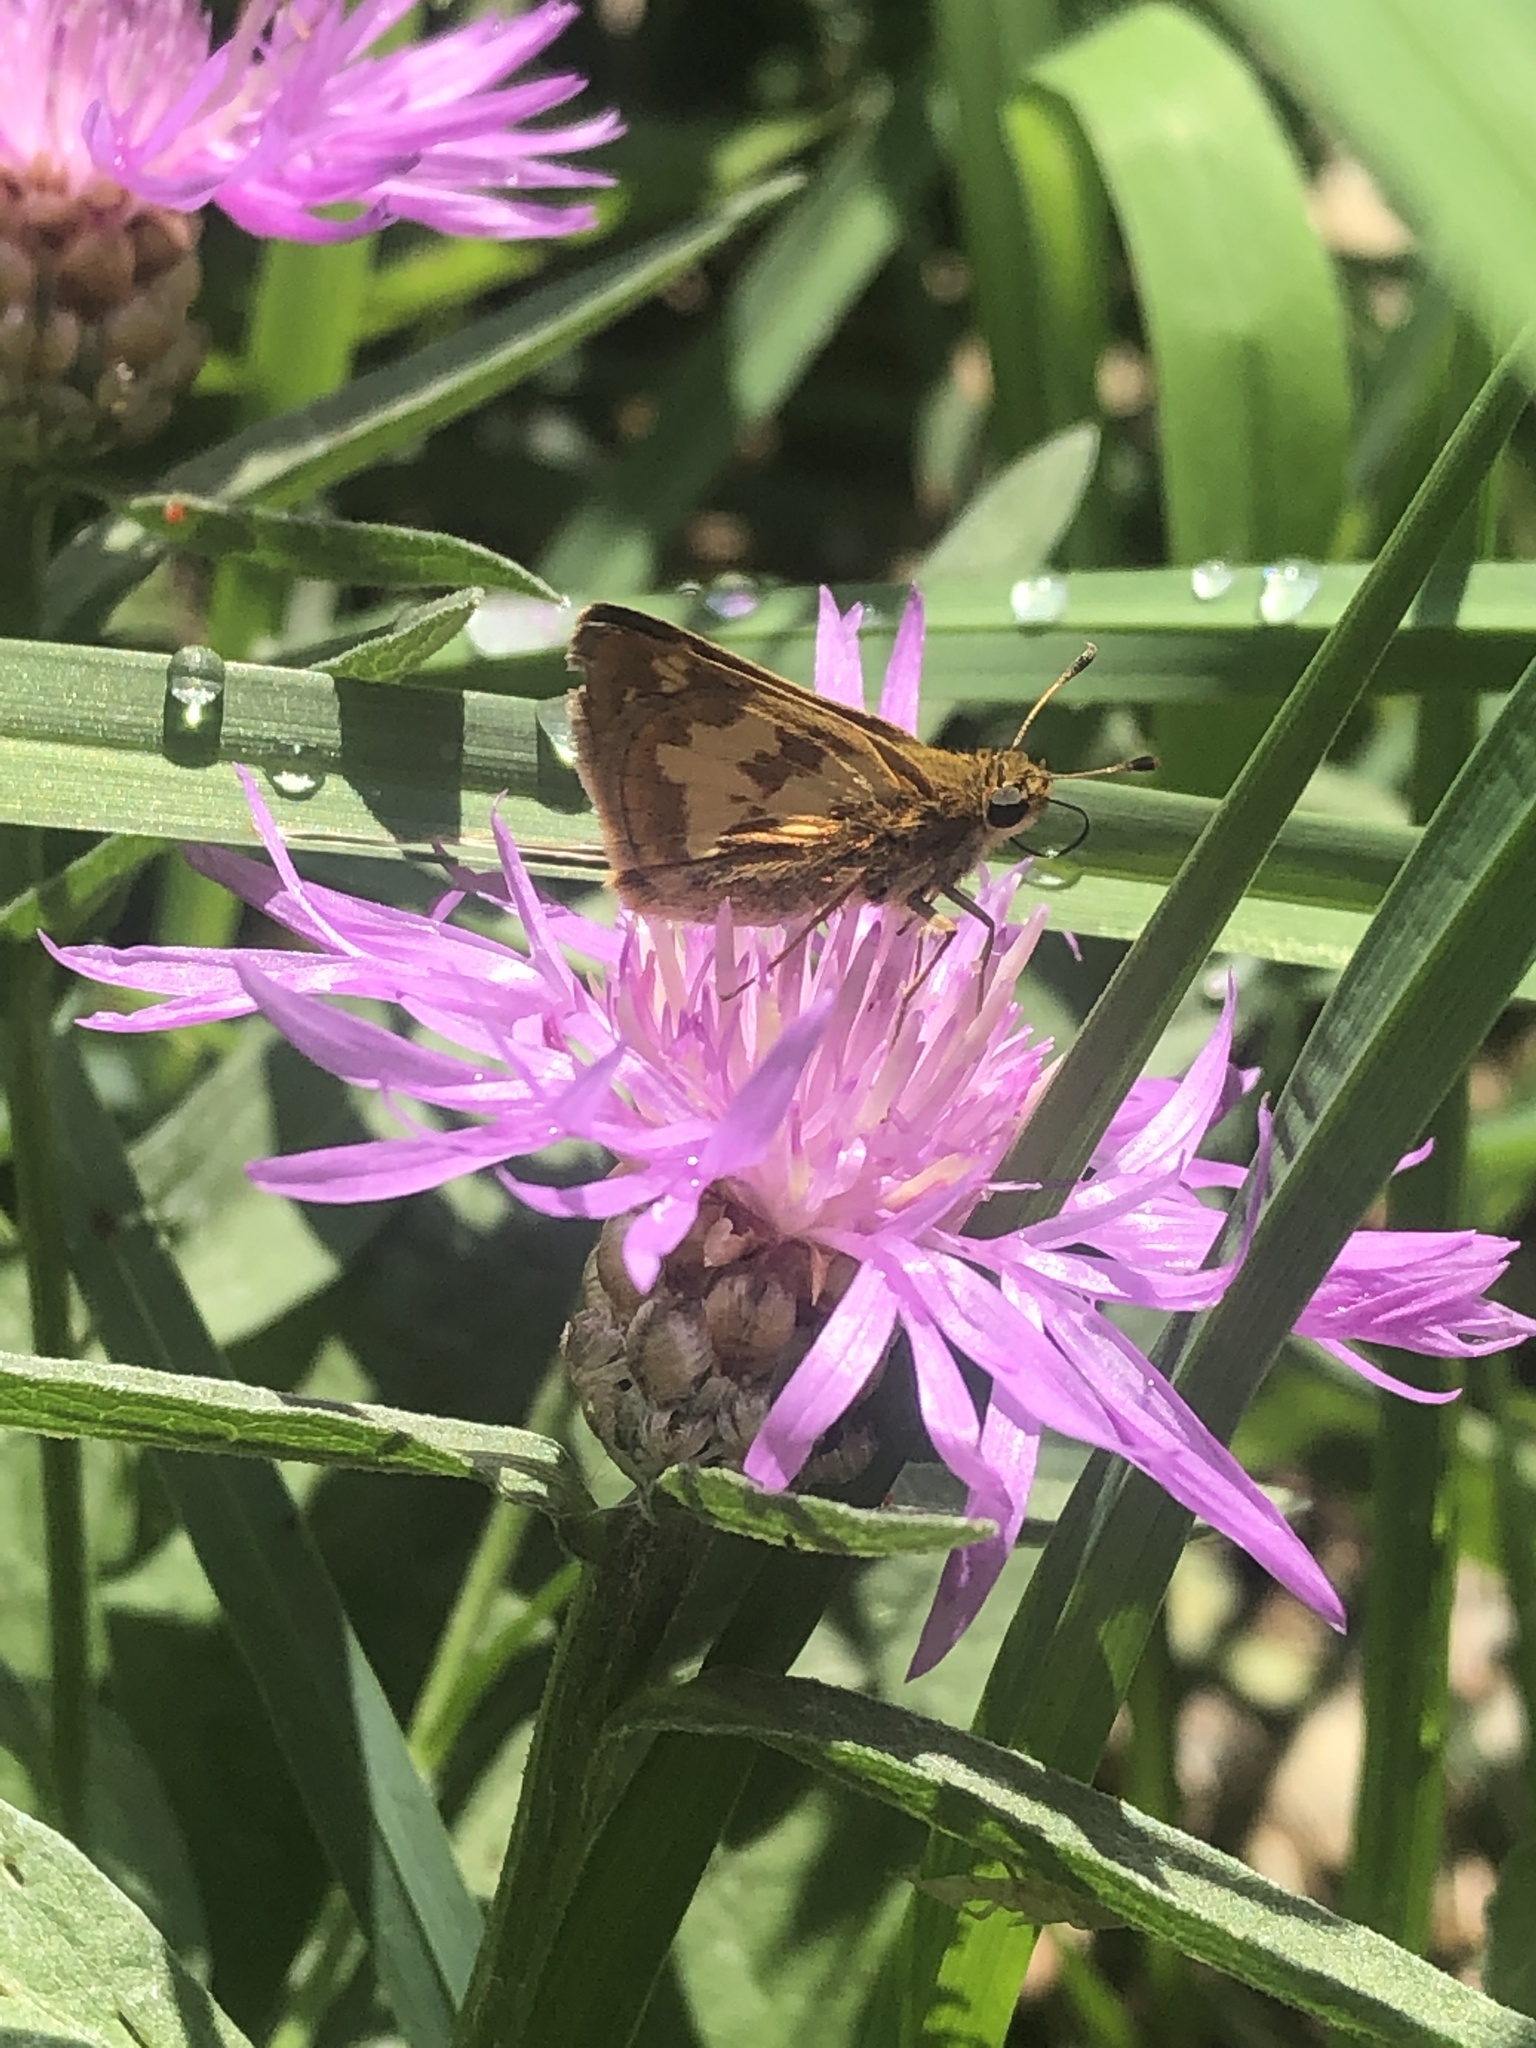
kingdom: Animalia
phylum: Arthropoda
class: Insecta
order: Lepidoptera
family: Hesperiidae
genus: Polites
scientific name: Polites coras
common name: Peck's skipper
